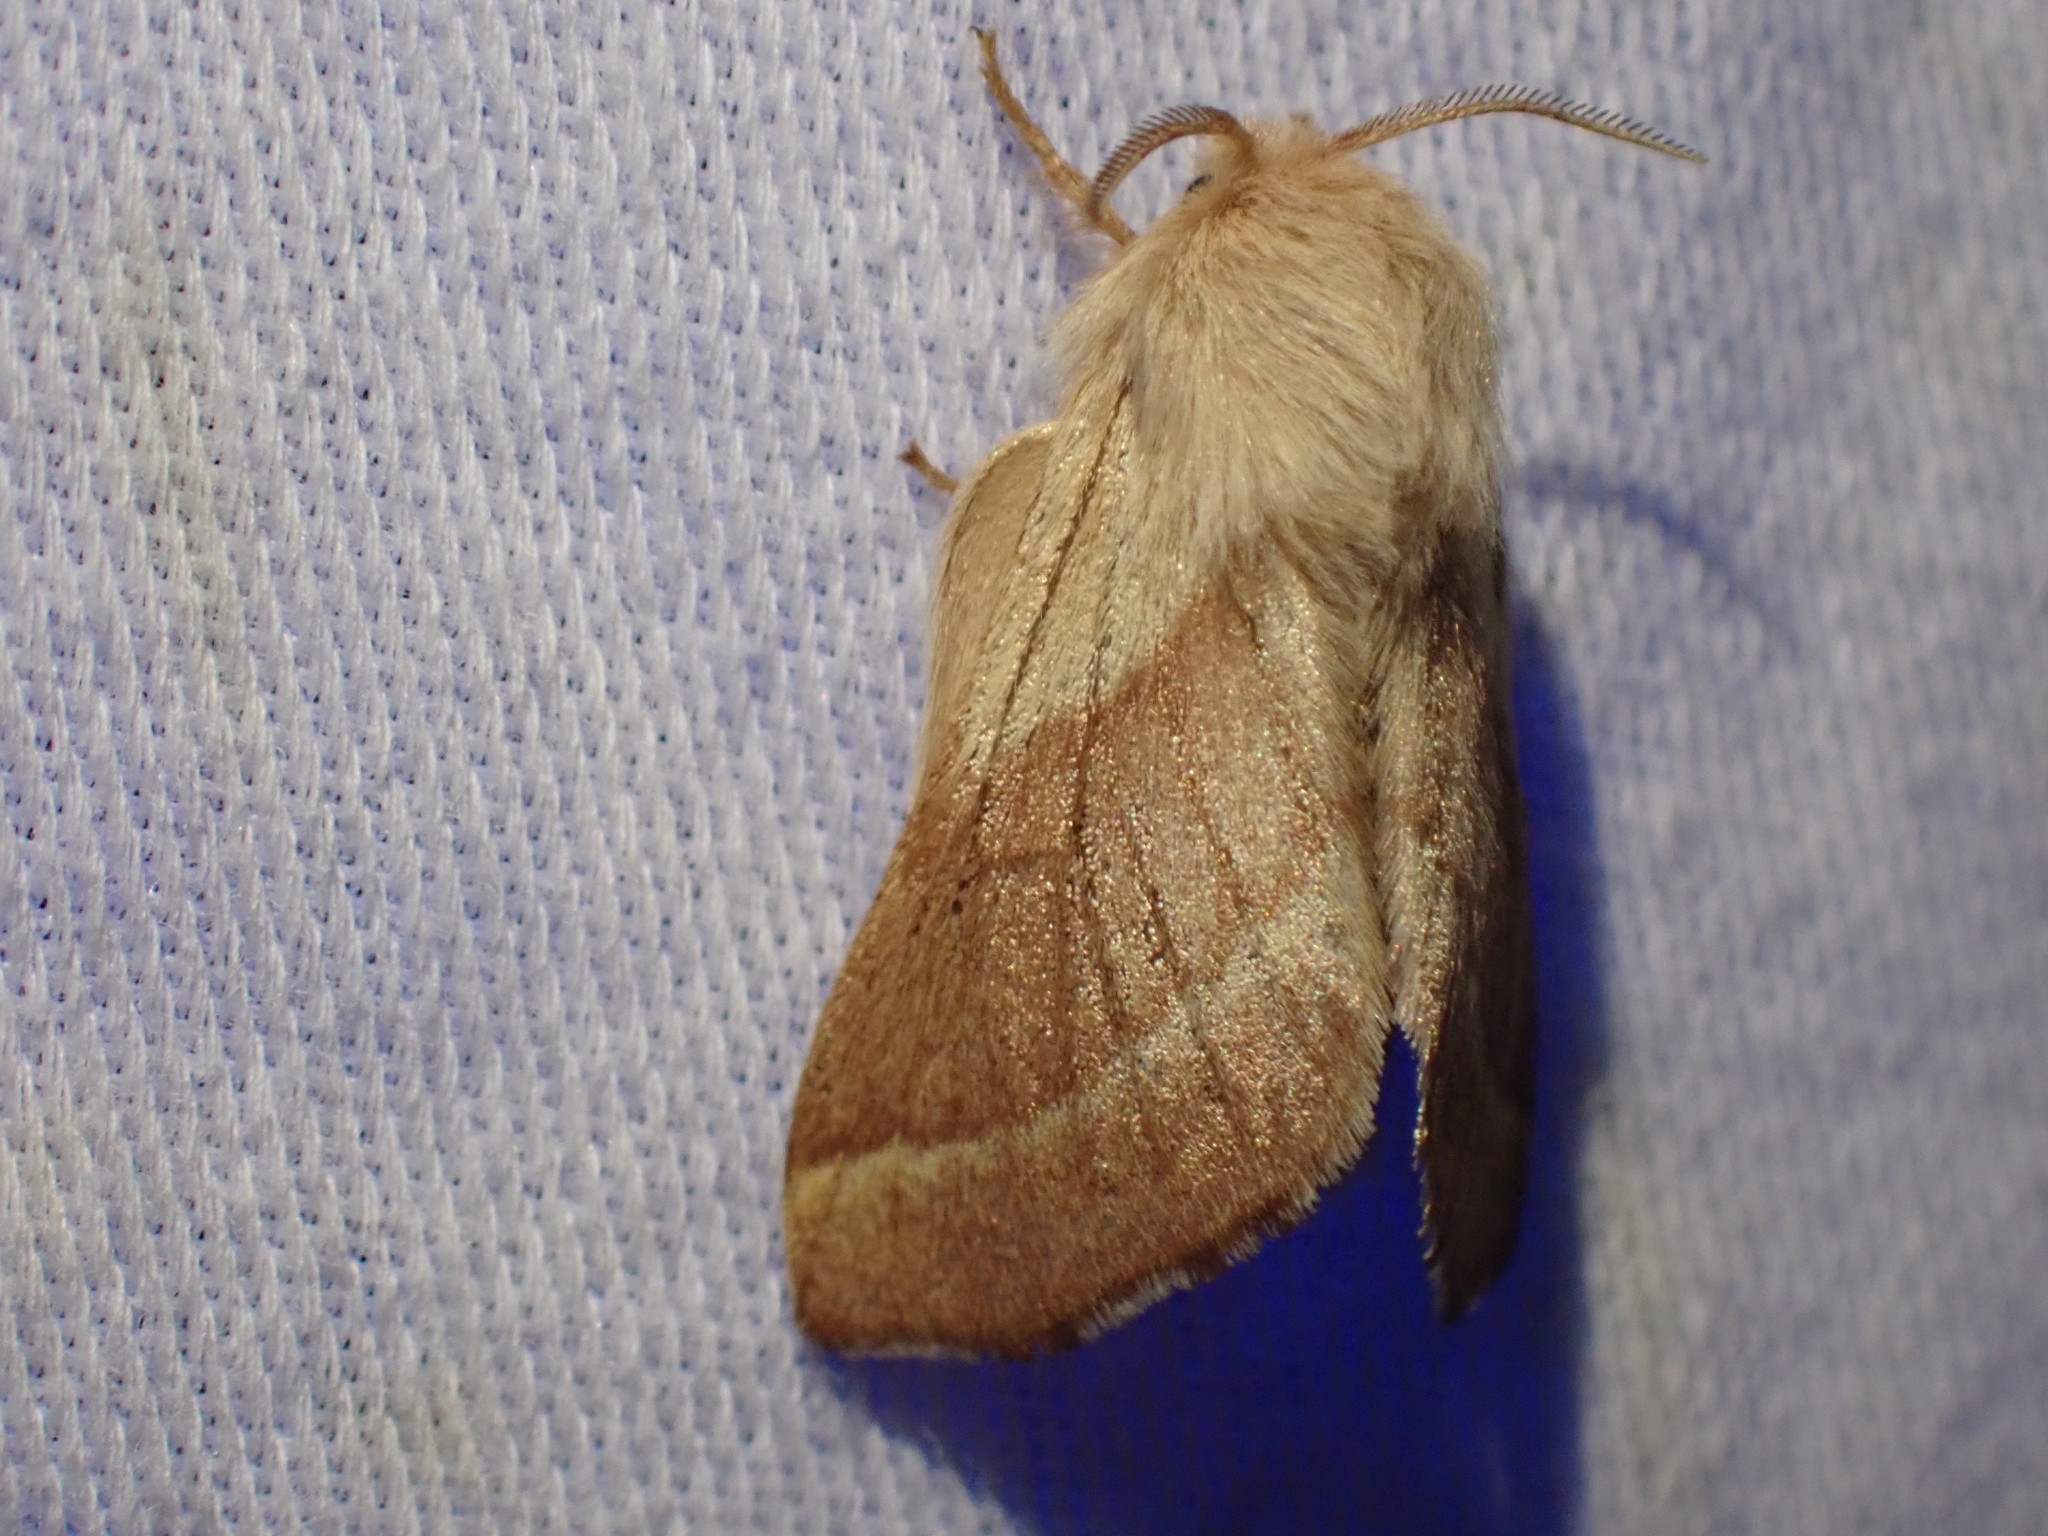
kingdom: Animalia
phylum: Arthropoda
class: Insecta
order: Lepidoptera
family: Lasiocampidae
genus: Malacosoma
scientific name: Malacosoma disstria
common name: Forest tent caterpillar
